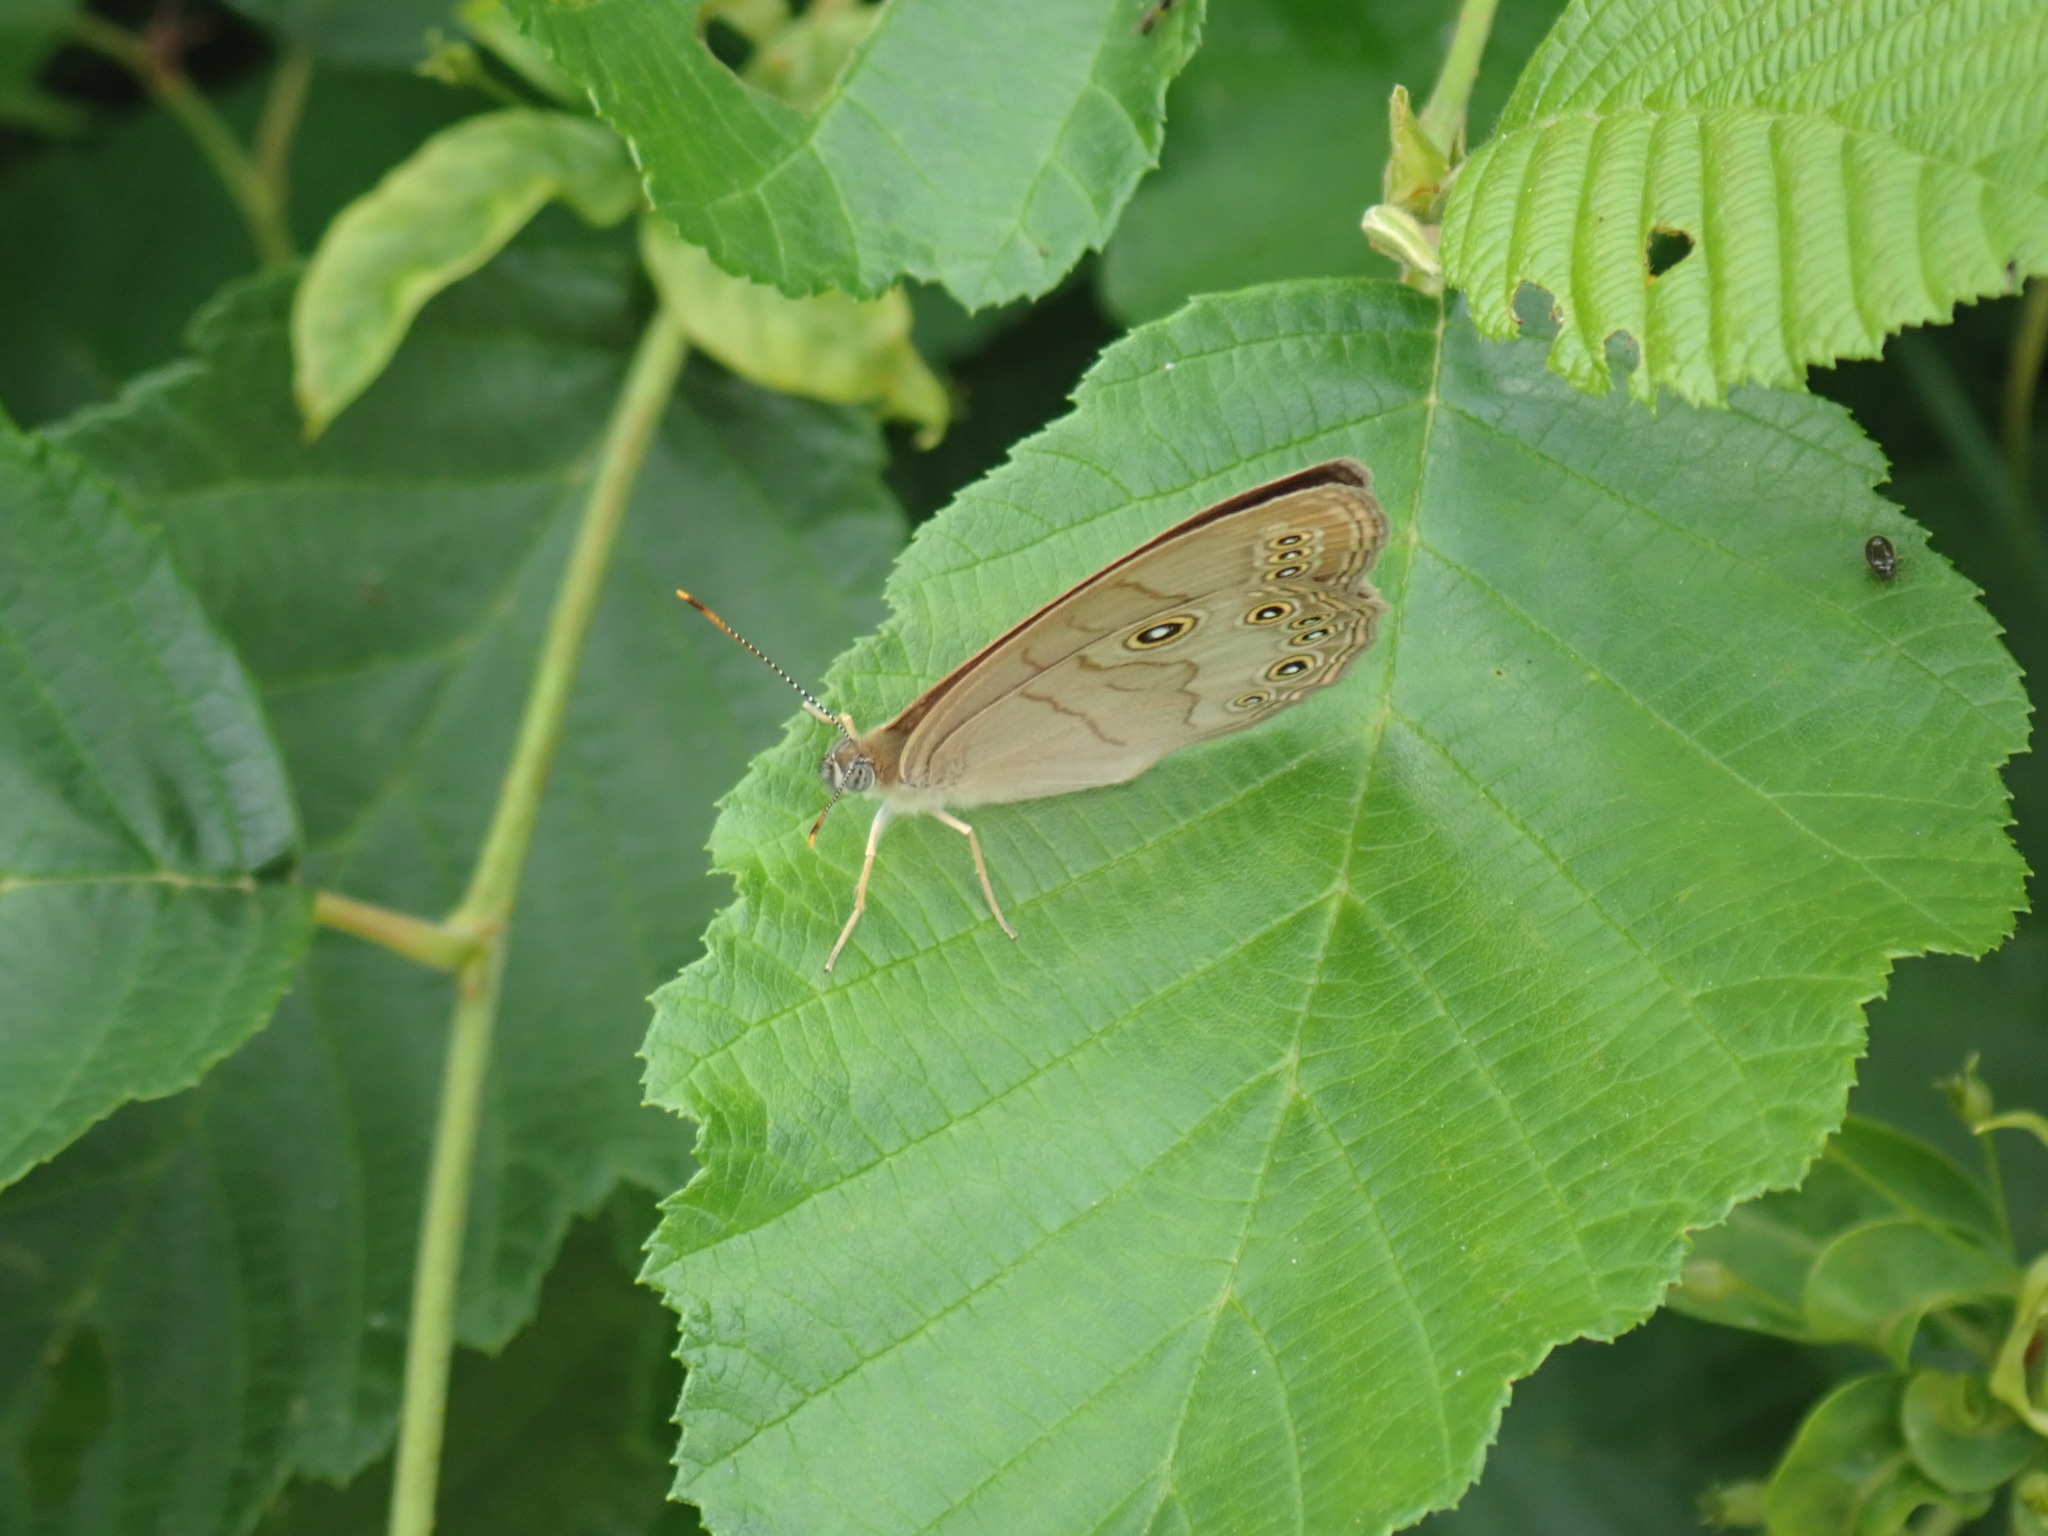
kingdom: Animalia
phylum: Arthropoda
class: Insecta
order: Lepidoptera
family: Nymphalidae
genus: Lethe
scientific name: Lethe eurydice
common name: Eyed brown
